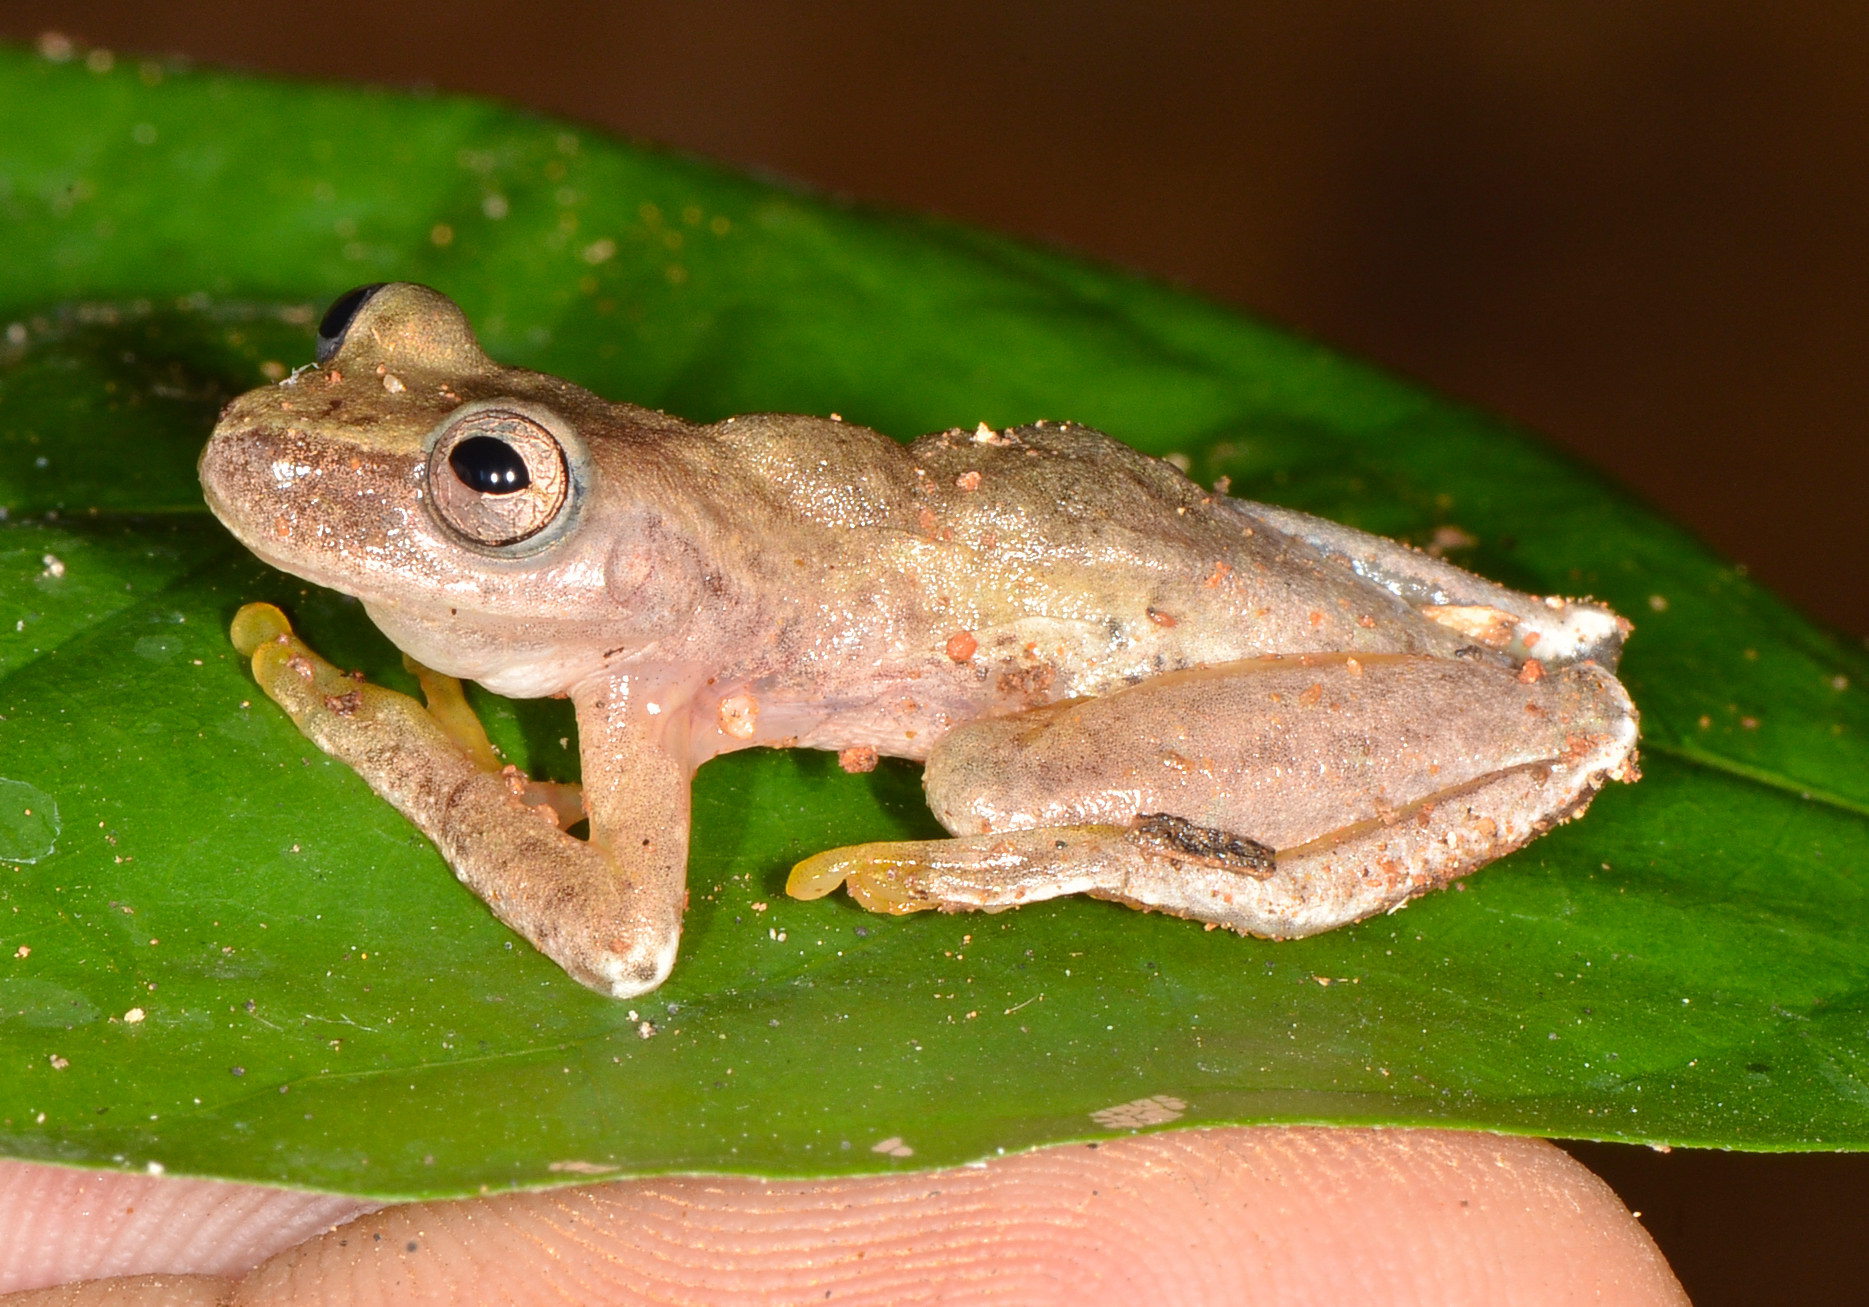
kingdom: Animalia
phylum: Chordata
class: Amphibia
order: Anura
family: Hylidae
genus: Exerodonta
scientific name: Exerodonta smaragdina
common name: Emerald treefrog
